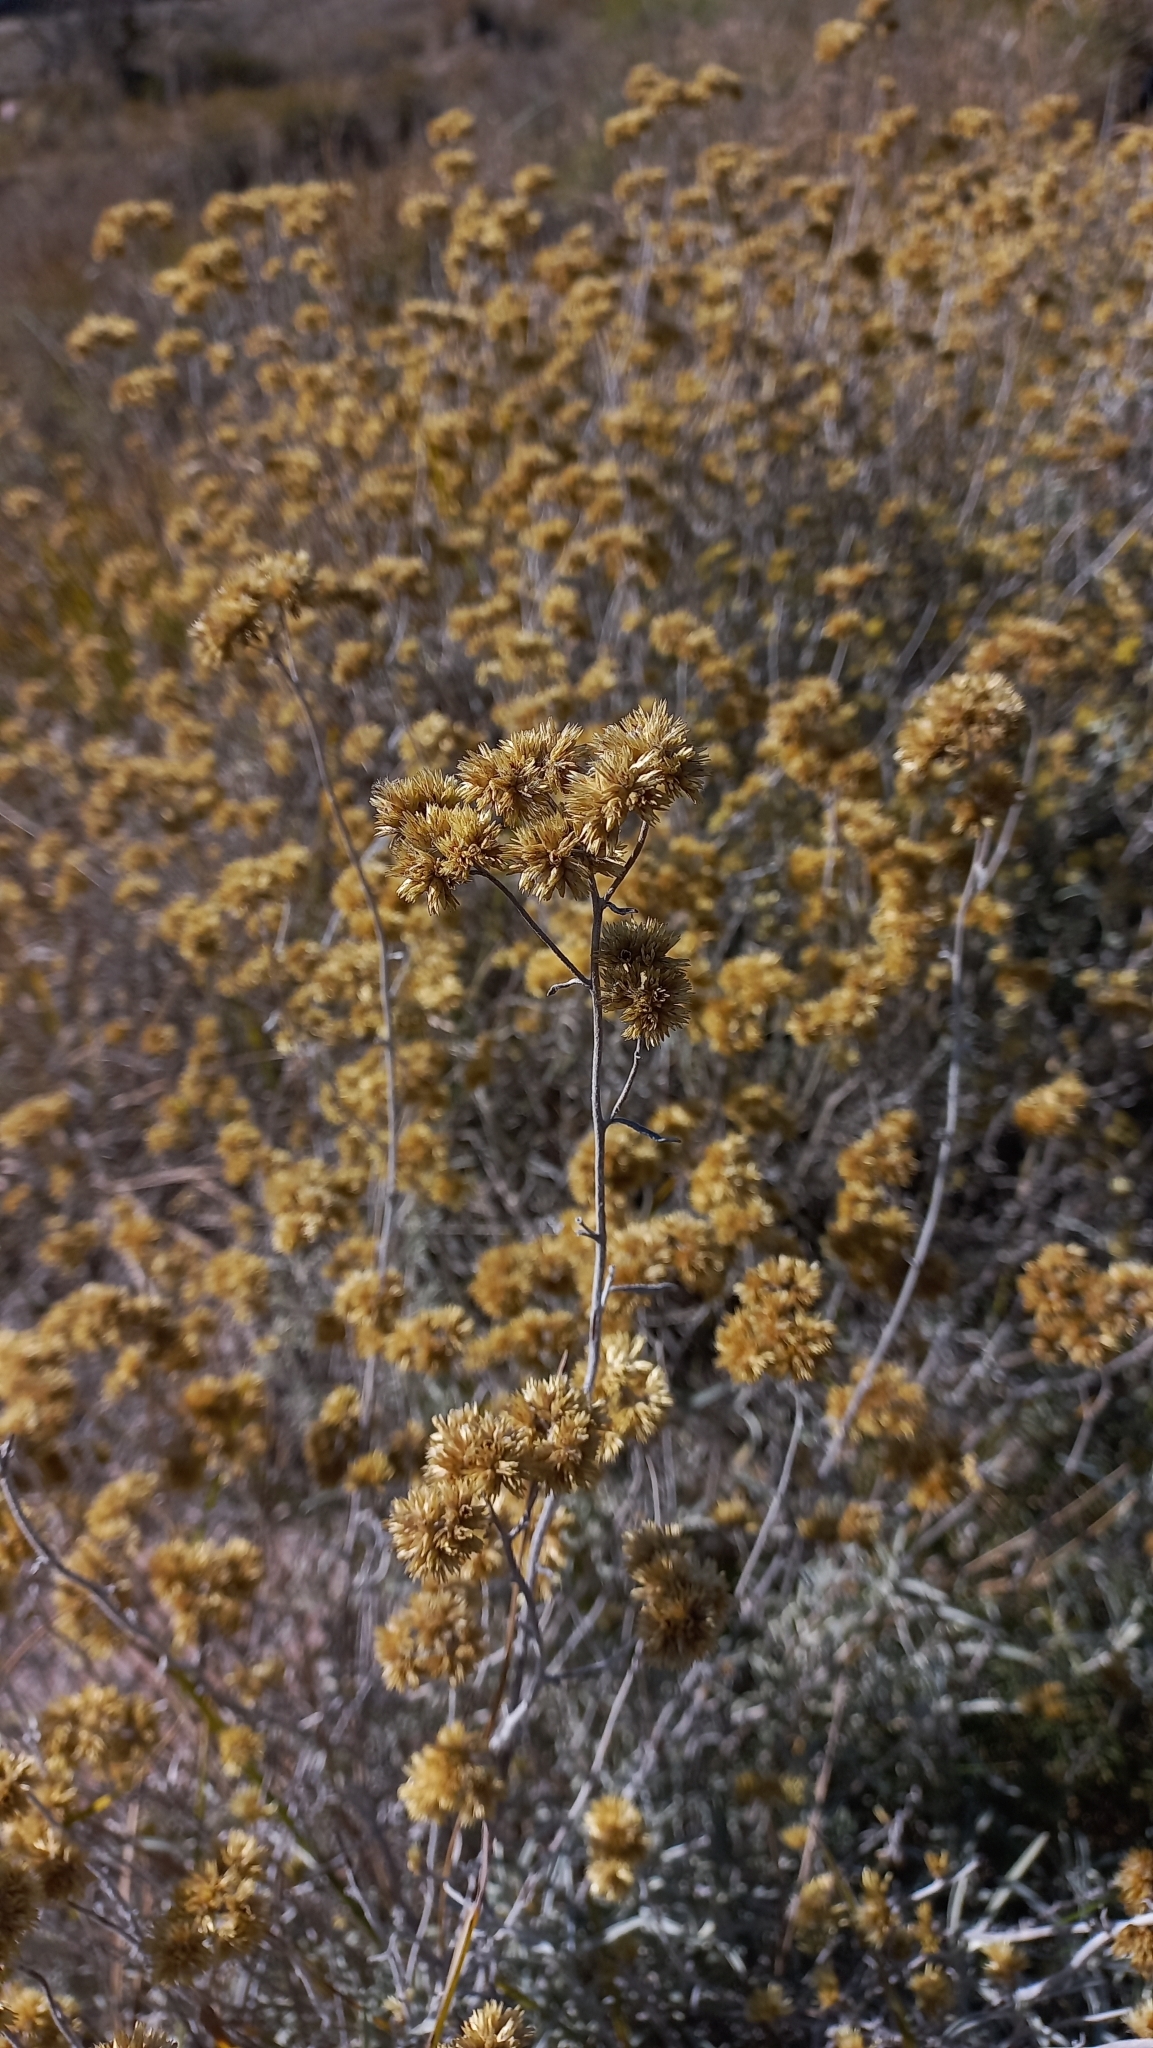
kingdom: Plantae
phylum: Tracheophyta
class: Magnoliopsida
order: Asterales
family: Asteraceae
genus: Achyrocline
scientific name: Achyrocline satureioides
